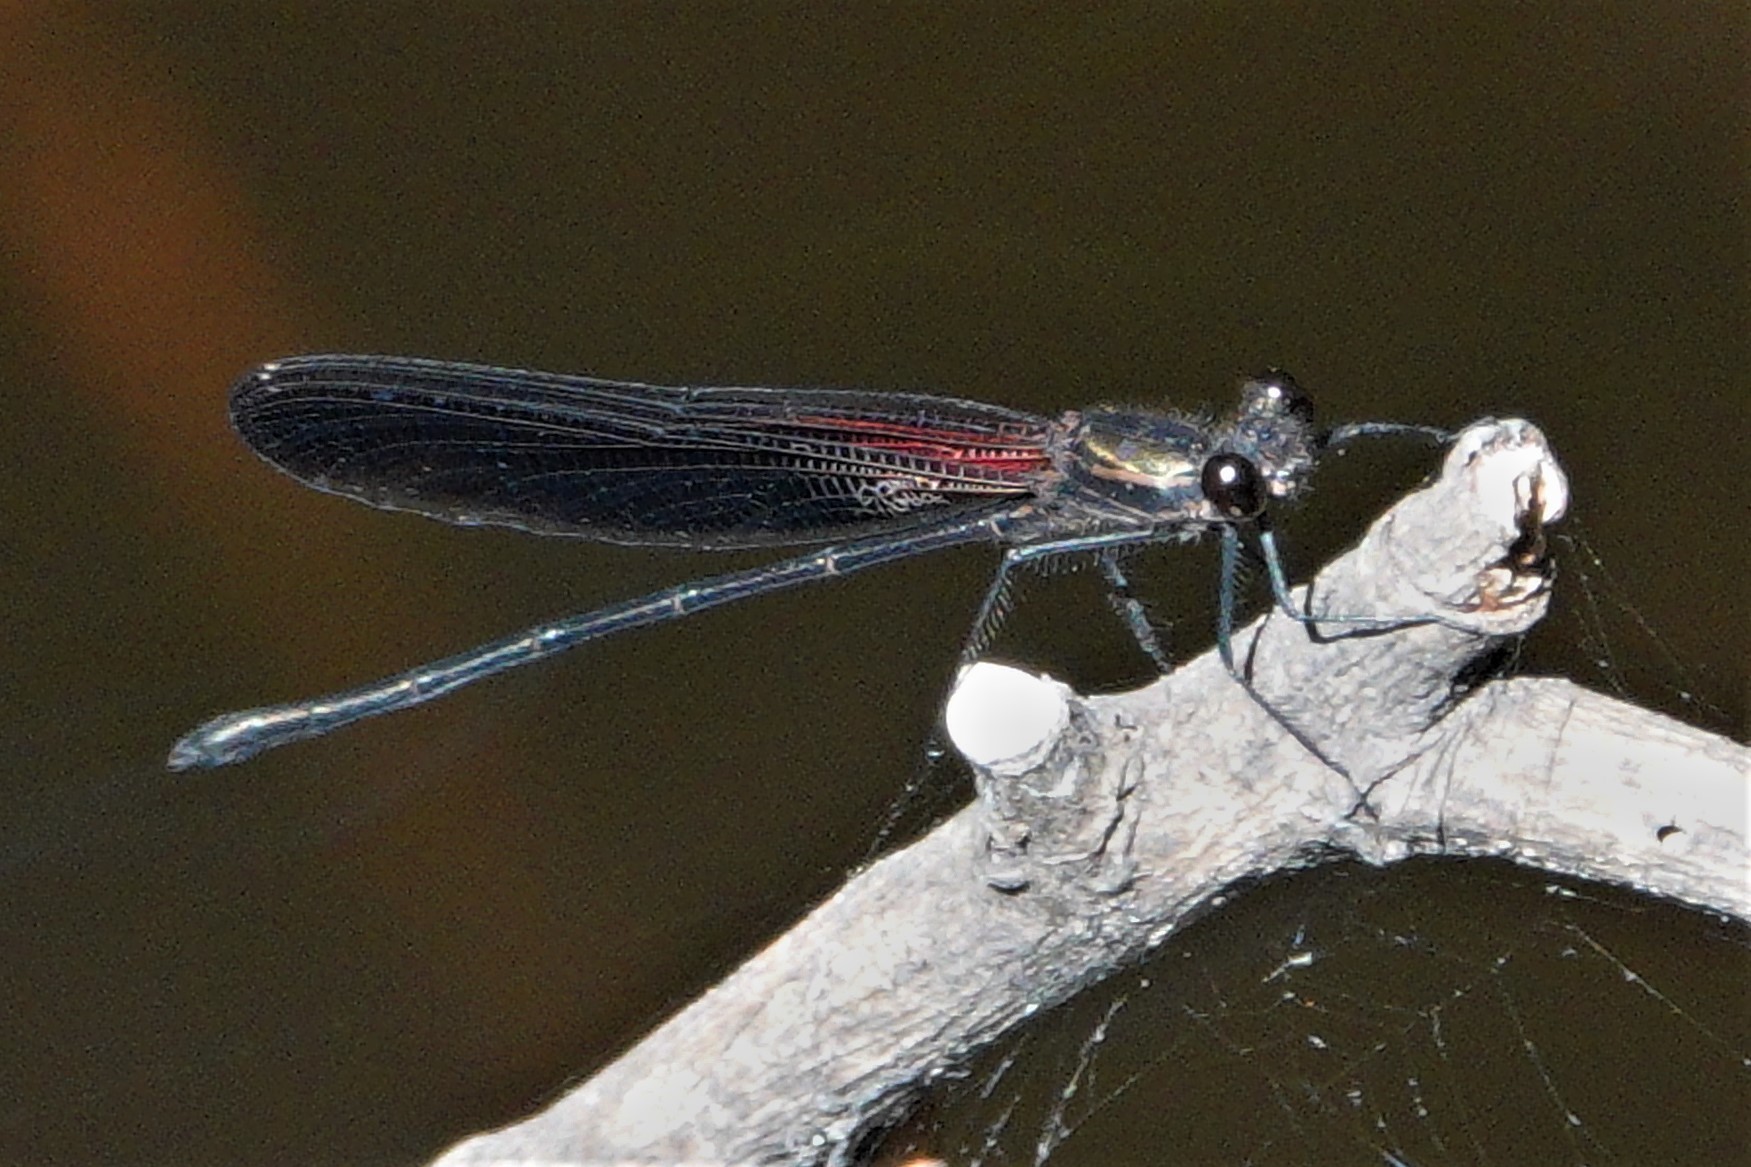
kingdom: Animalia
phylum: Arthropoda
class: Insecta
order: Odonata
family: Calopterygidae
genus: Hetaerina
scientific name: Hetaerina titia
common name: Smoky rubyspot
